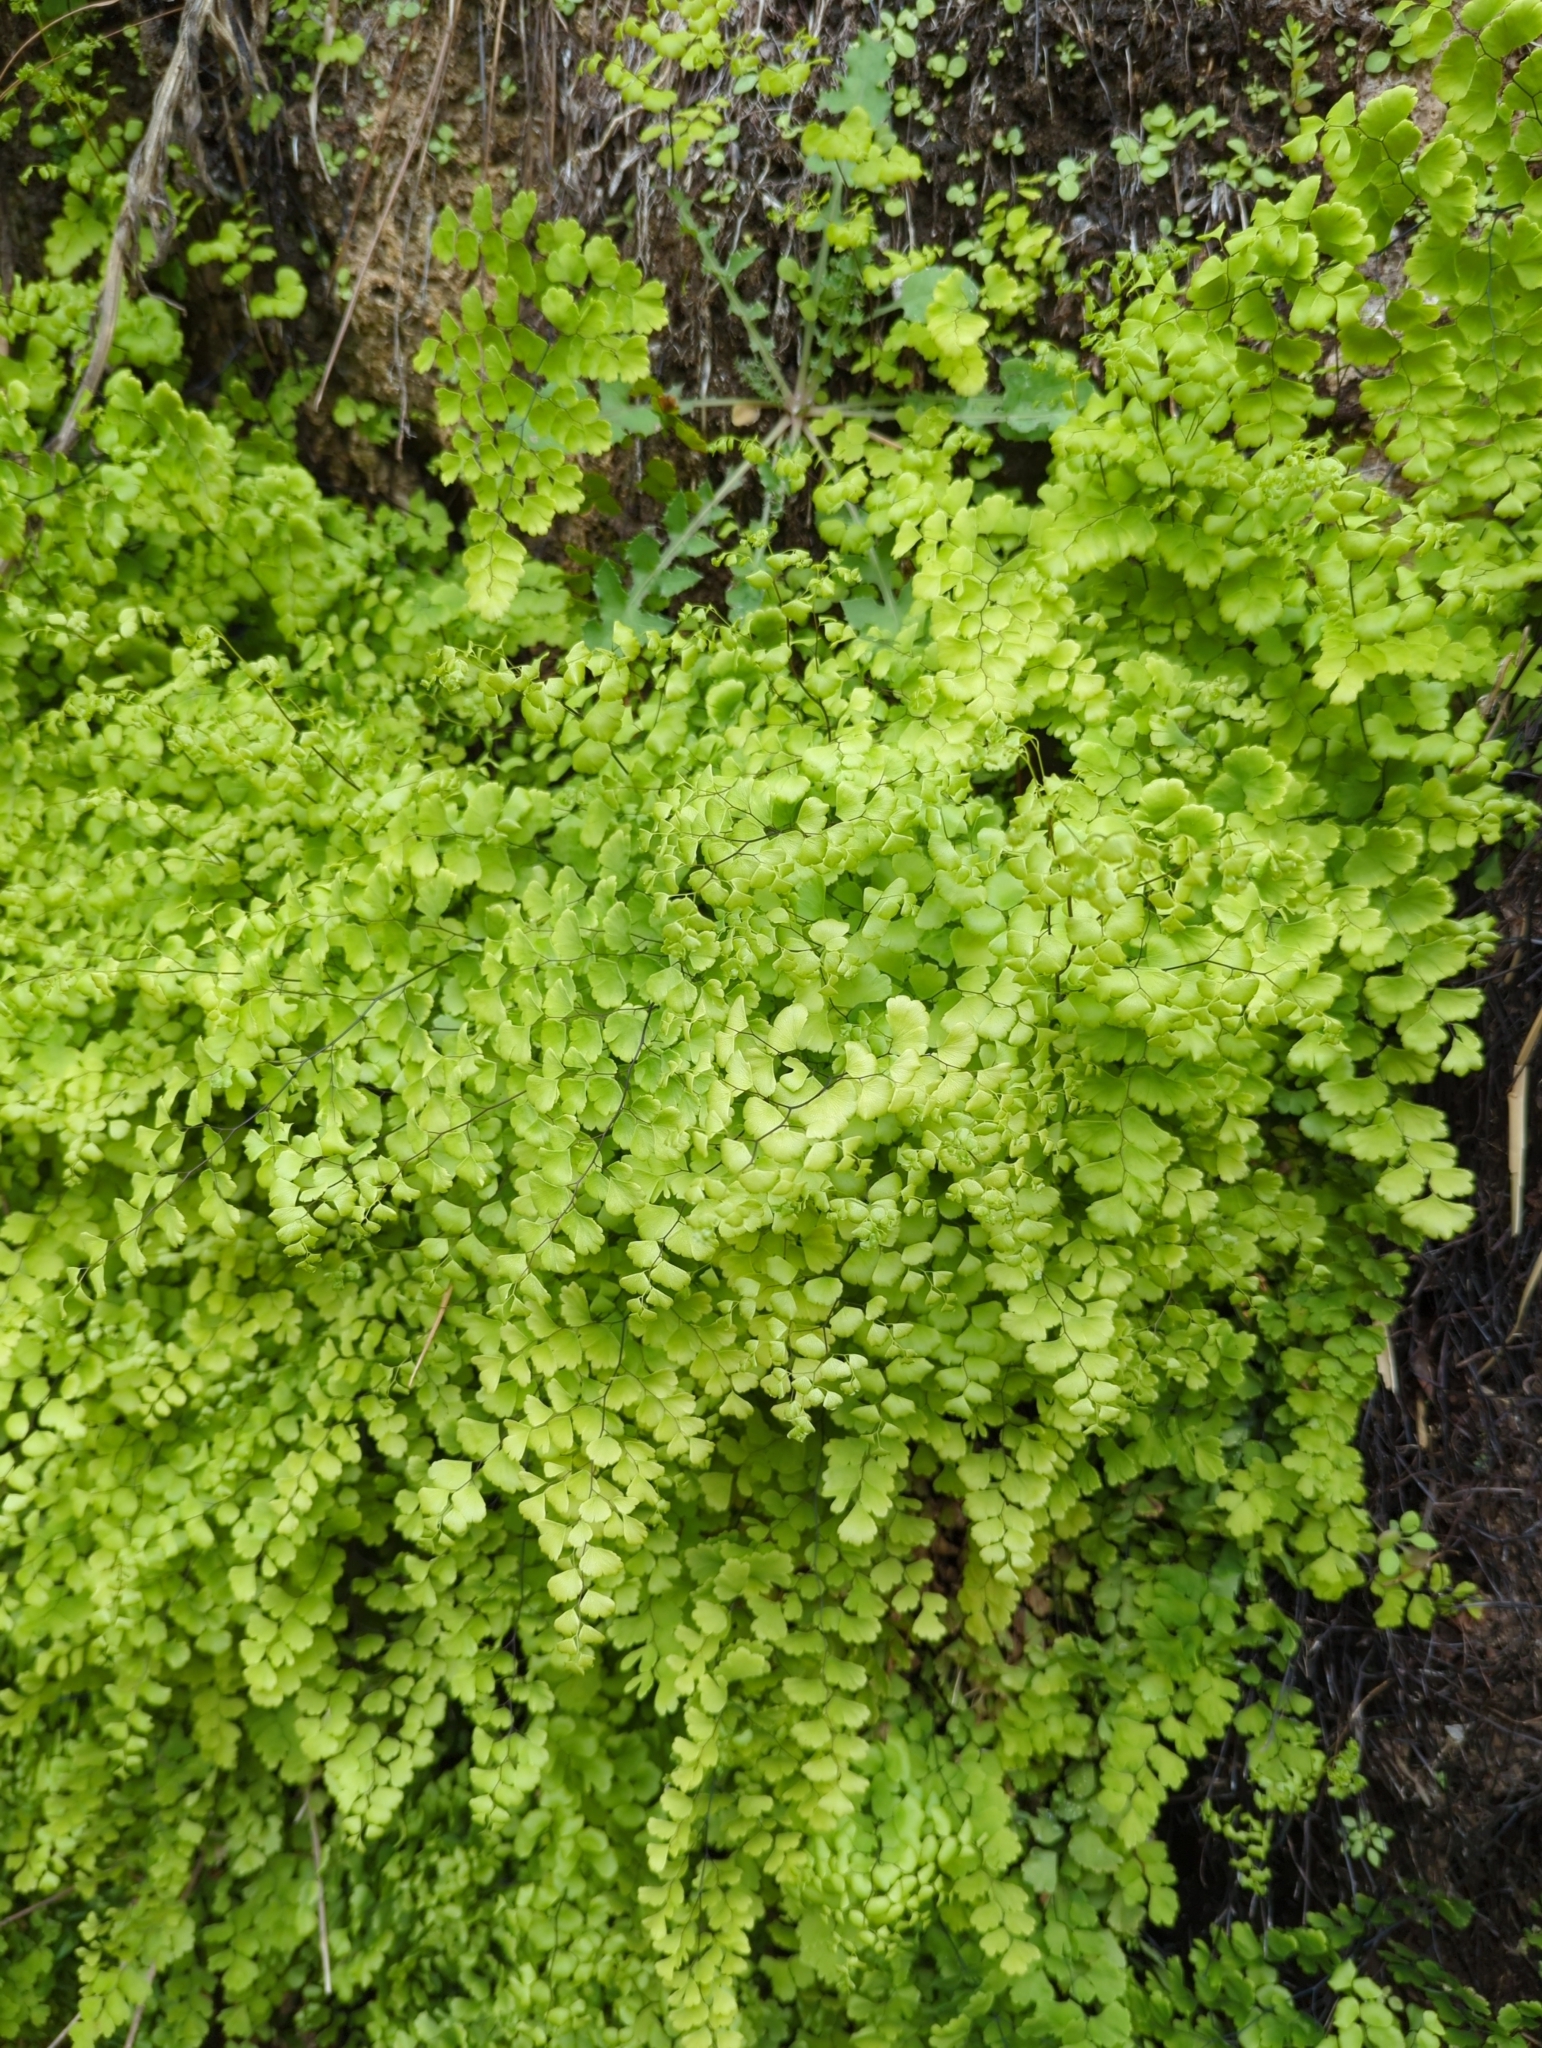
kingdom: Plantae
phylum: Tracheophyta
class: Polypodiopsida
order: Polypodiales
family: Pteridaceae
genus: Adiantum
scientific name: Adiantum capillus-veneris
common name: Maidenhair fern
